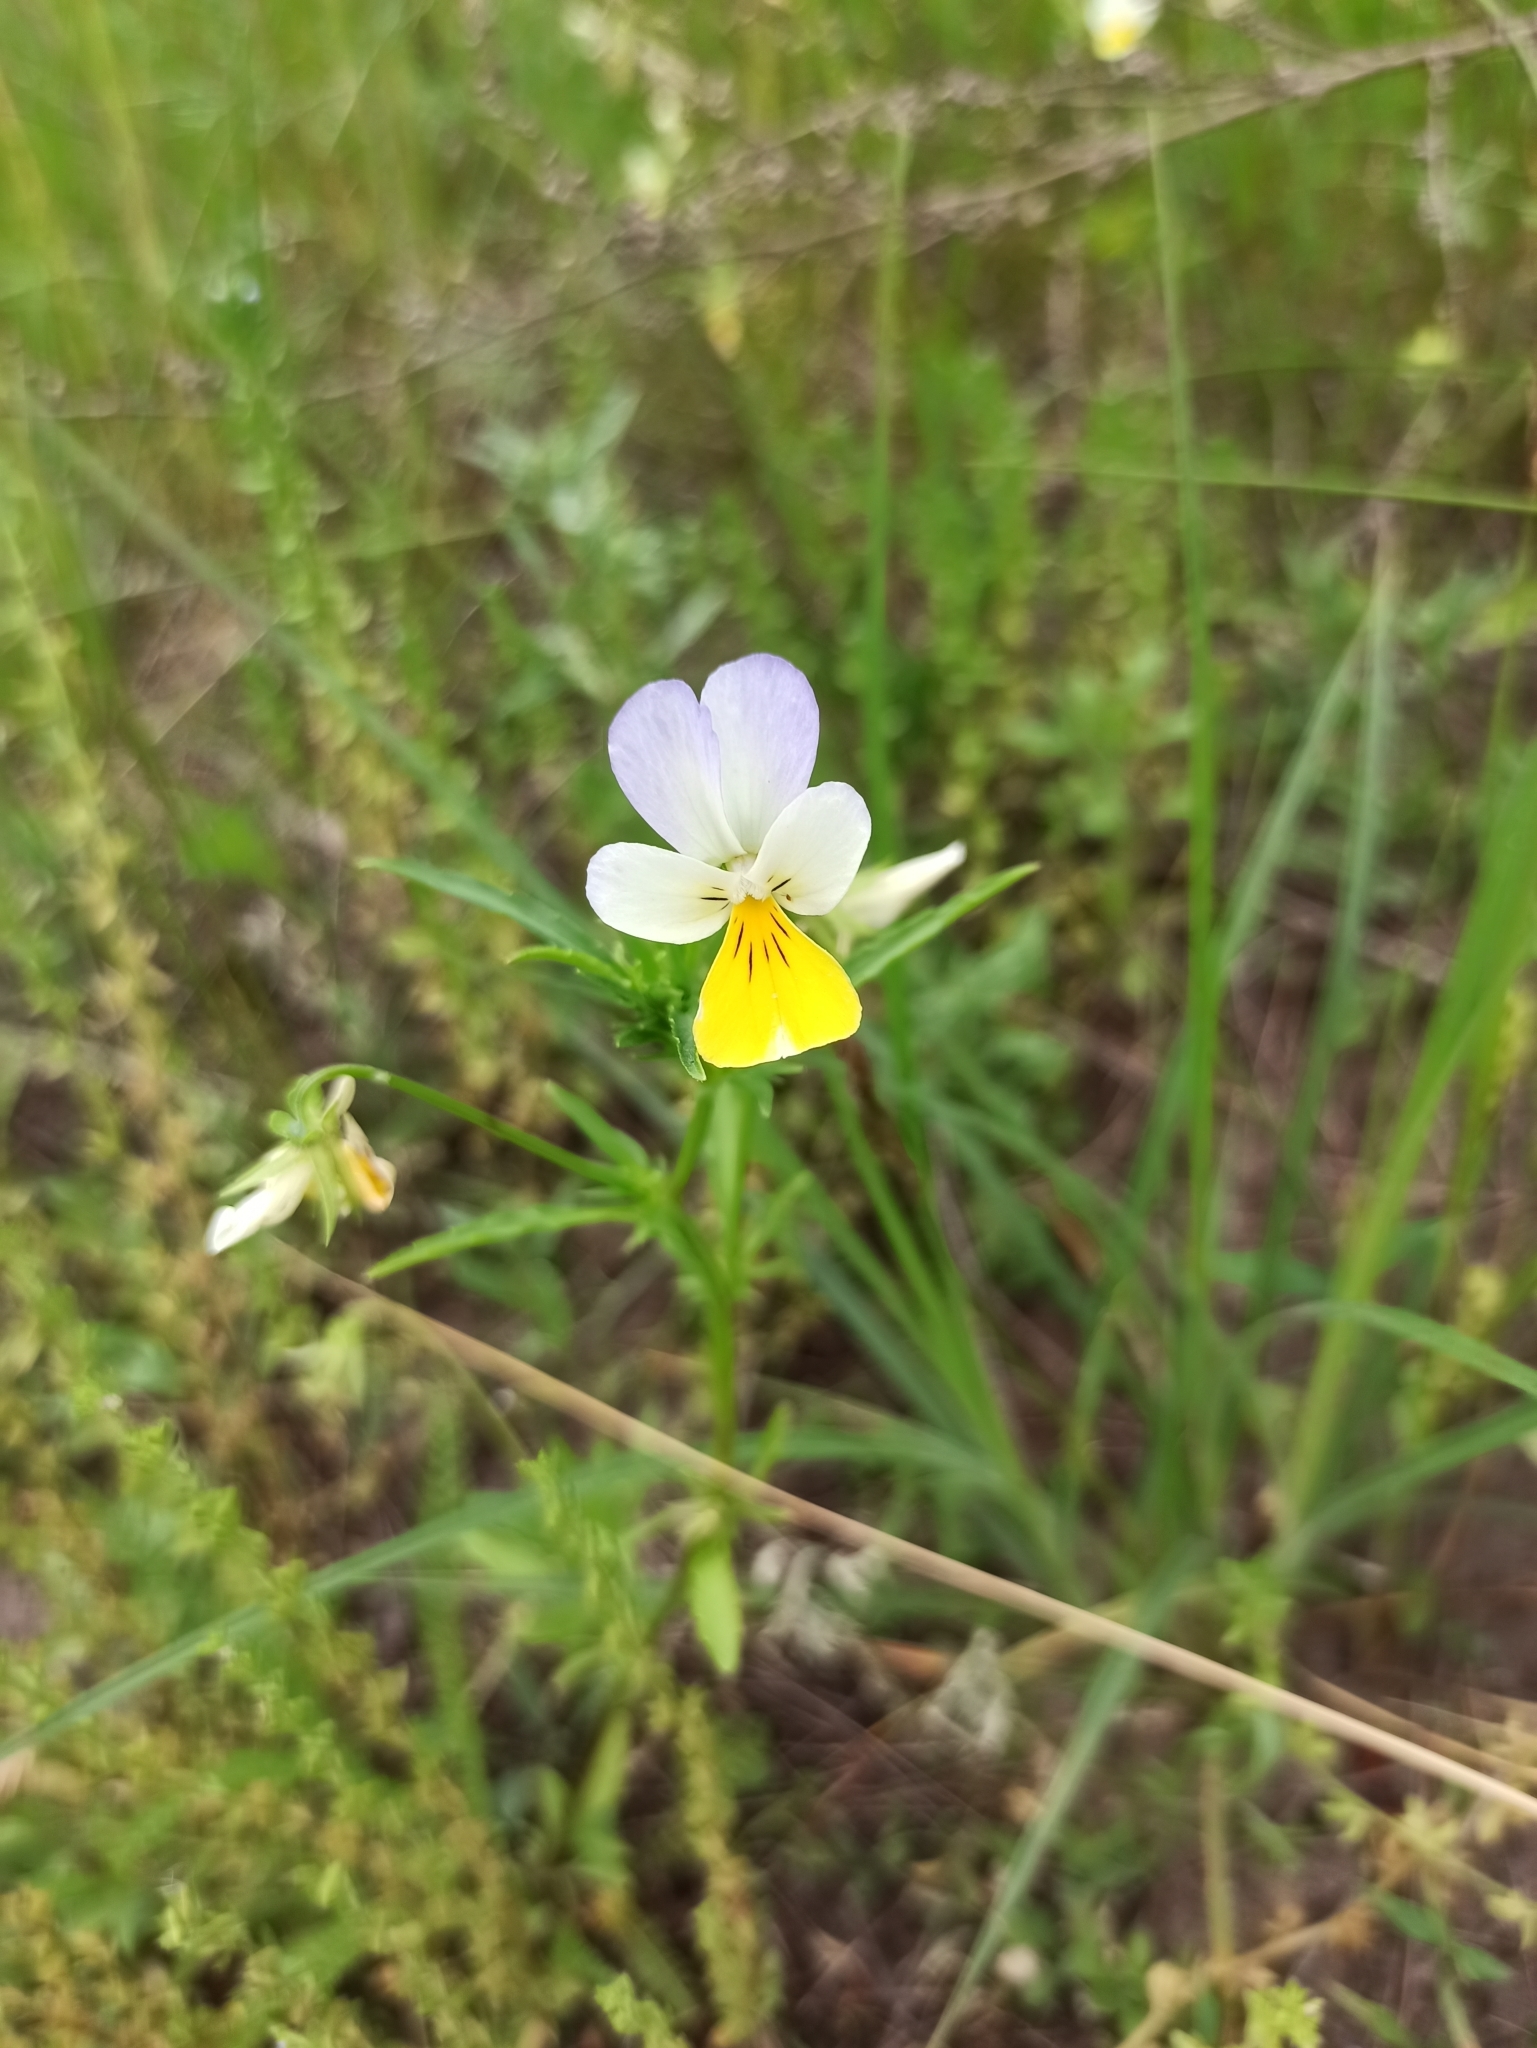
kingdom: Plantae
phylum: Tracheophyta
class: Magnoliopsida
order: Malpighiales
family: Violaceae
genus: Viola
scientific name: Viola tricolor
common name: Pansy
